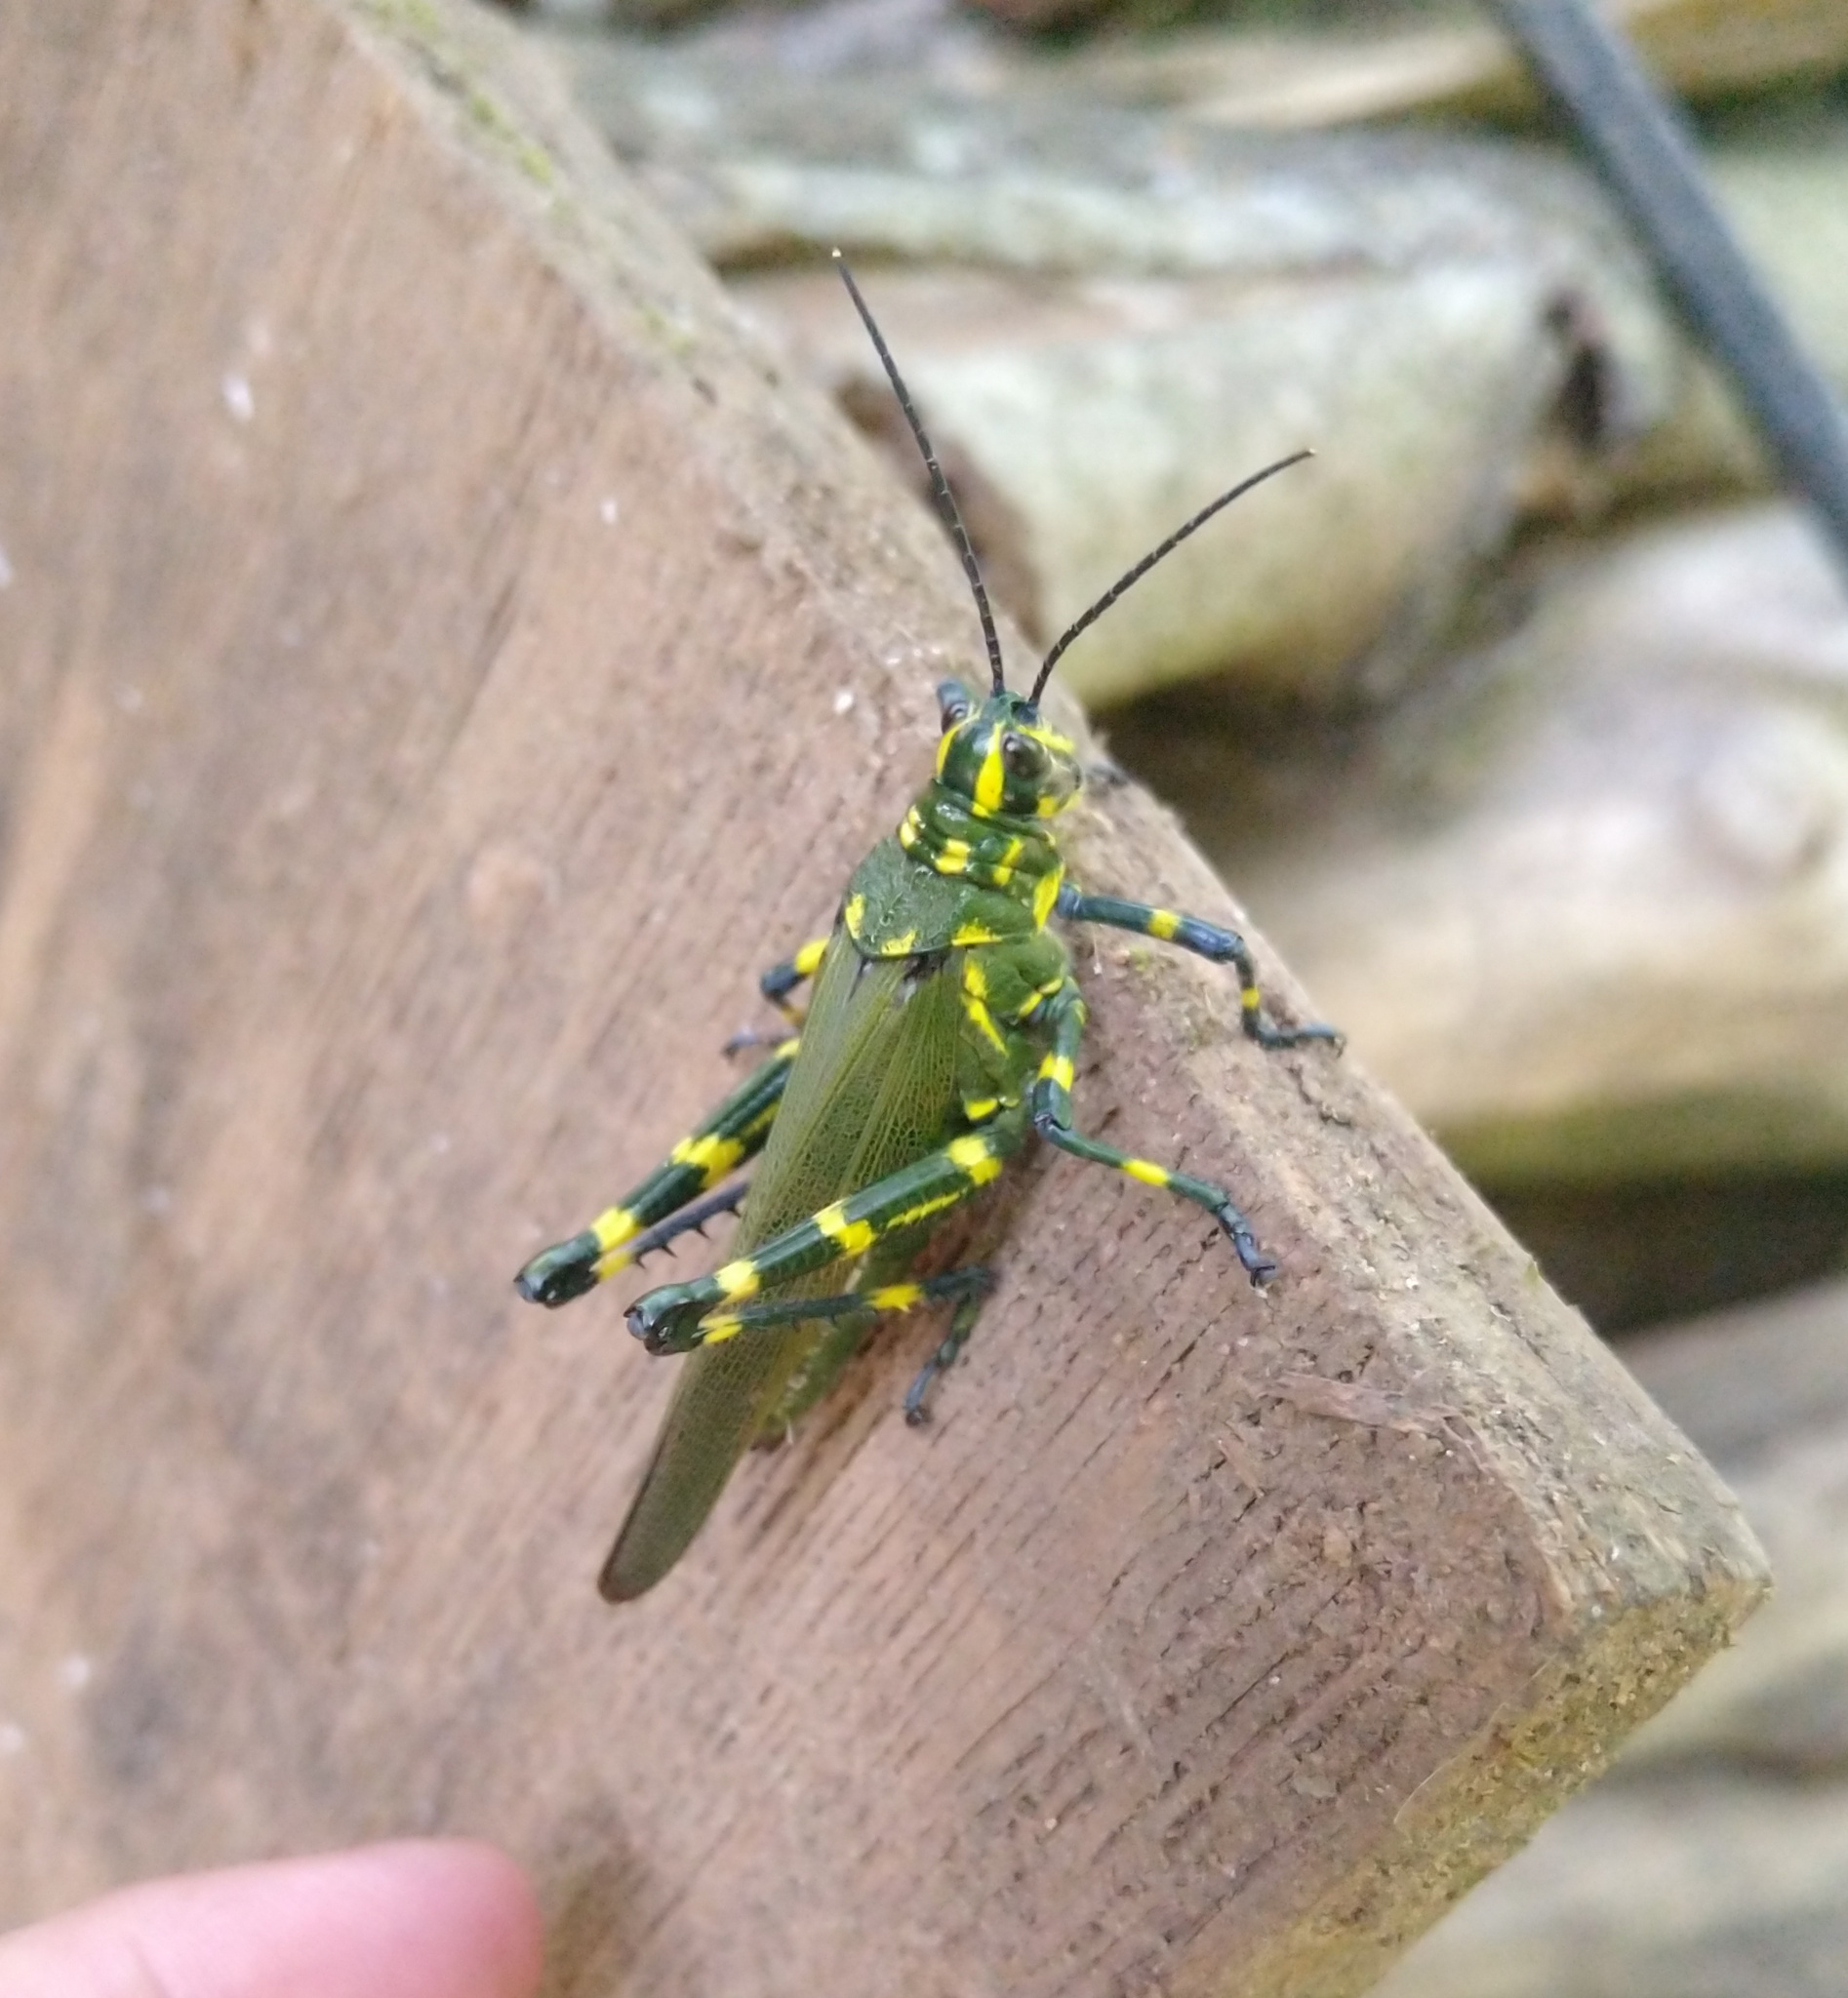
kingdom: Animalia
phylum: Arthropoda
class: Insecta
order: Orthoptera
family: Romaleidae
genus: Chromacris
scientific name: Chromacris speciosa
